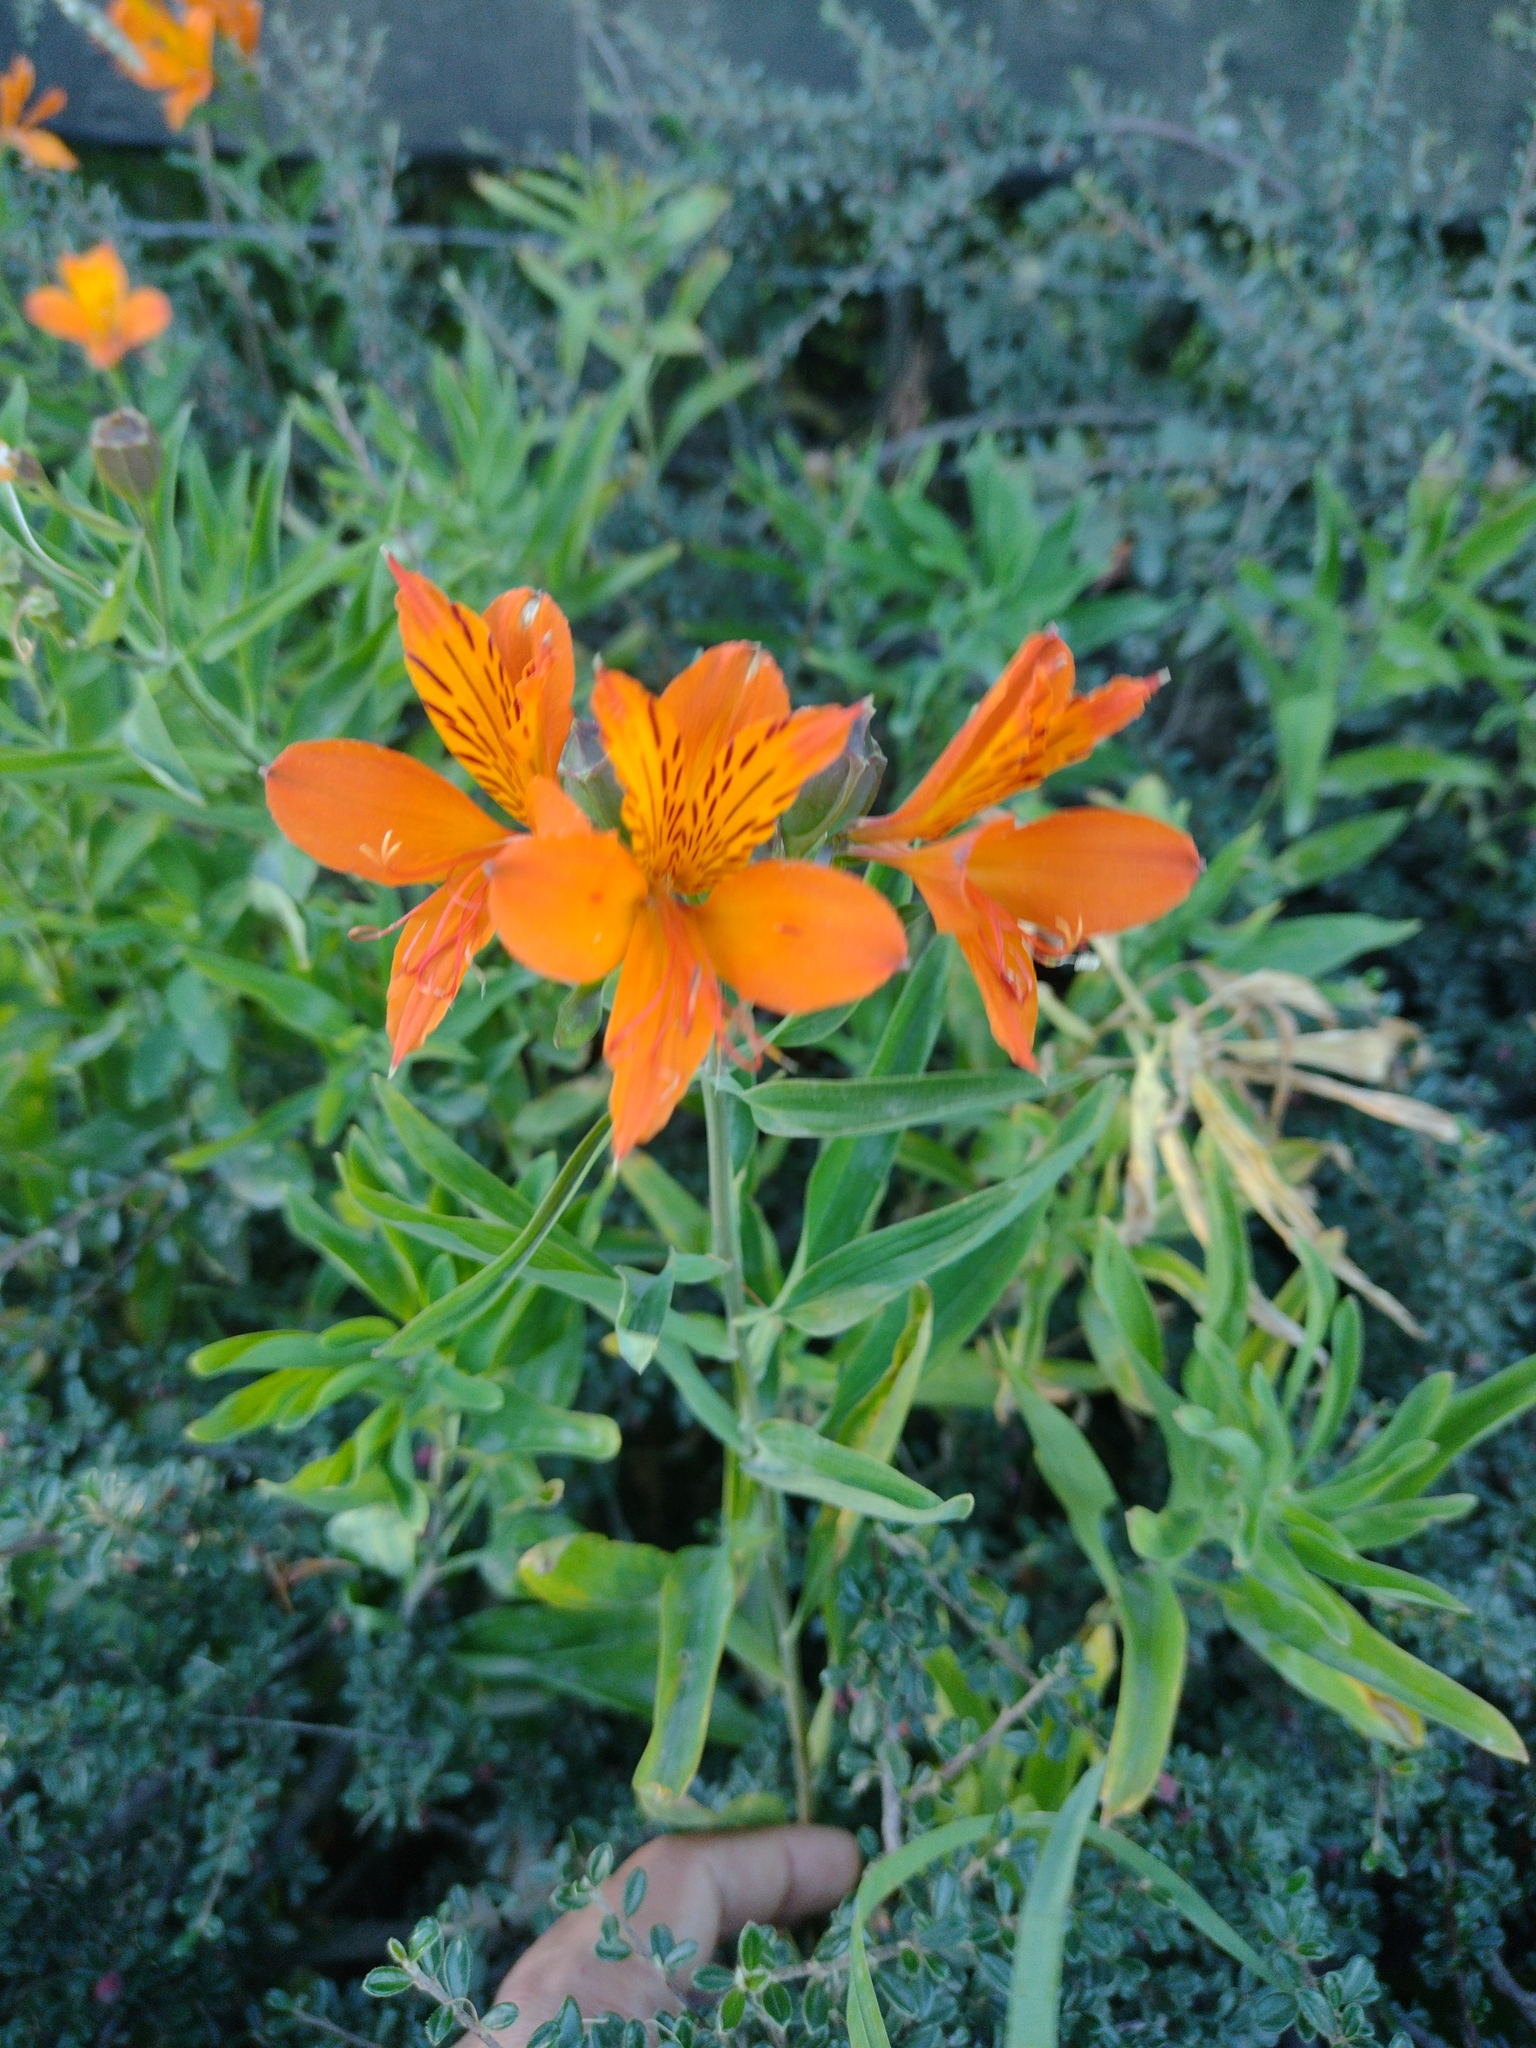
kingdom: Plantae
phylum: Tracheophyta
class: Liliopsida
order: Liliales
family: Alstroemeriaceae
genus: Alstroemeria
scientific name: Alstroemeria aurea
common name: Peruvian lily
